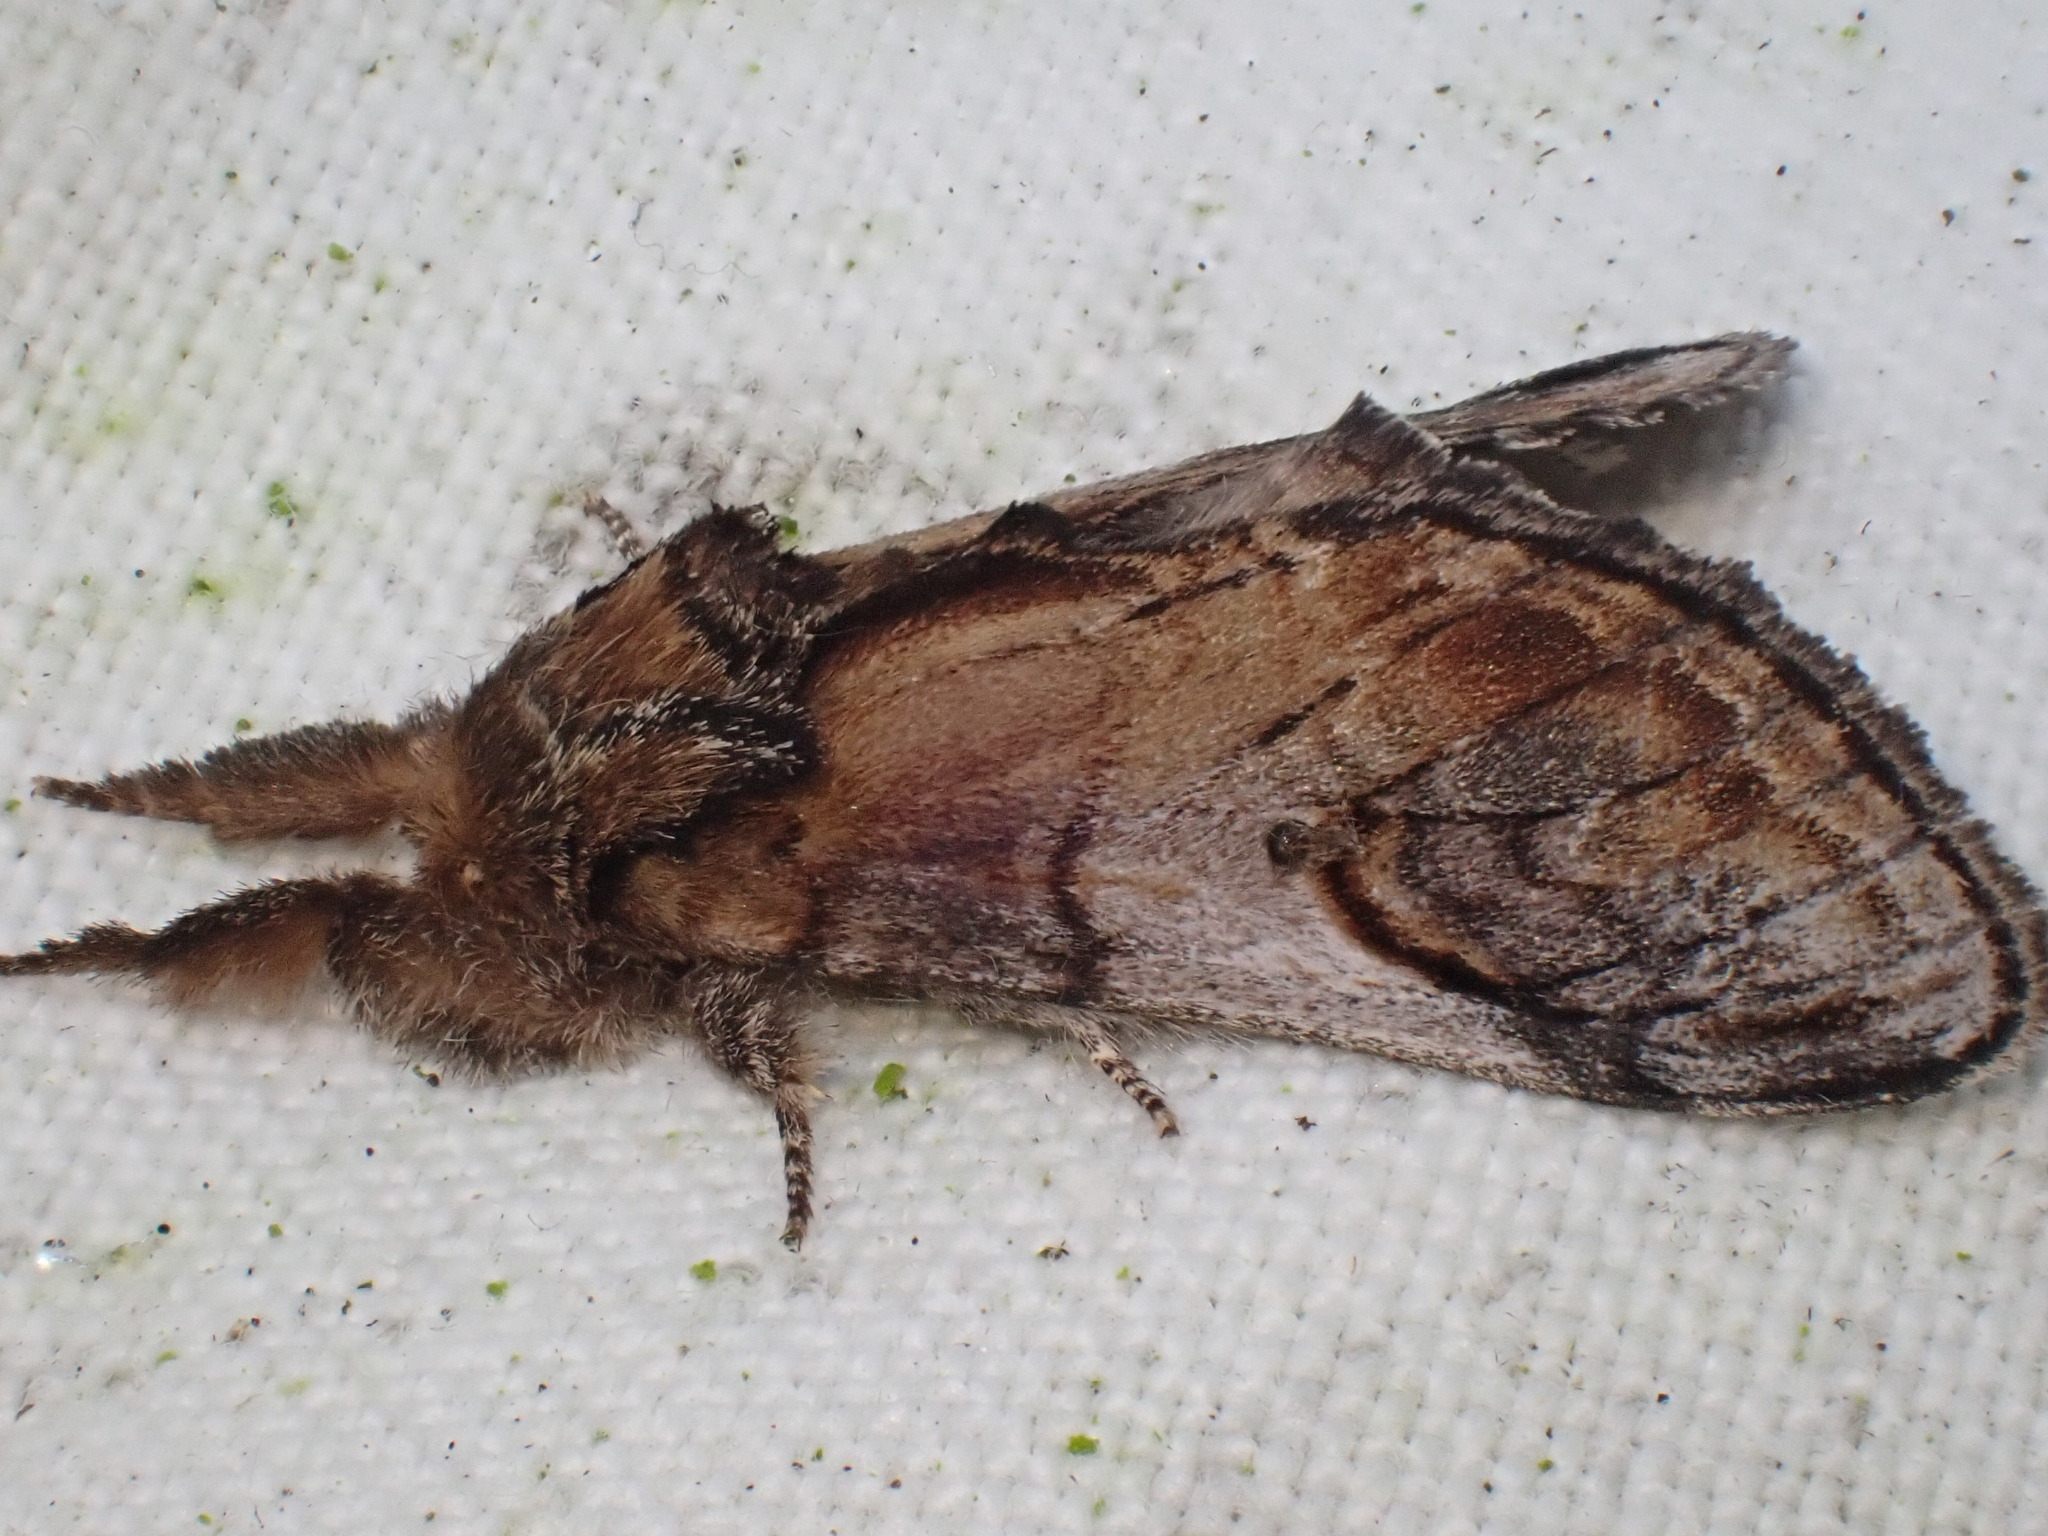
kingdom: Animalia
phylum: Arthropoda
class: Insecta
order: Lepidoptera
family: Notodontidae
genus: Notodonta
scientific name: Notodonta ziczac
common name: Pebble prominent
